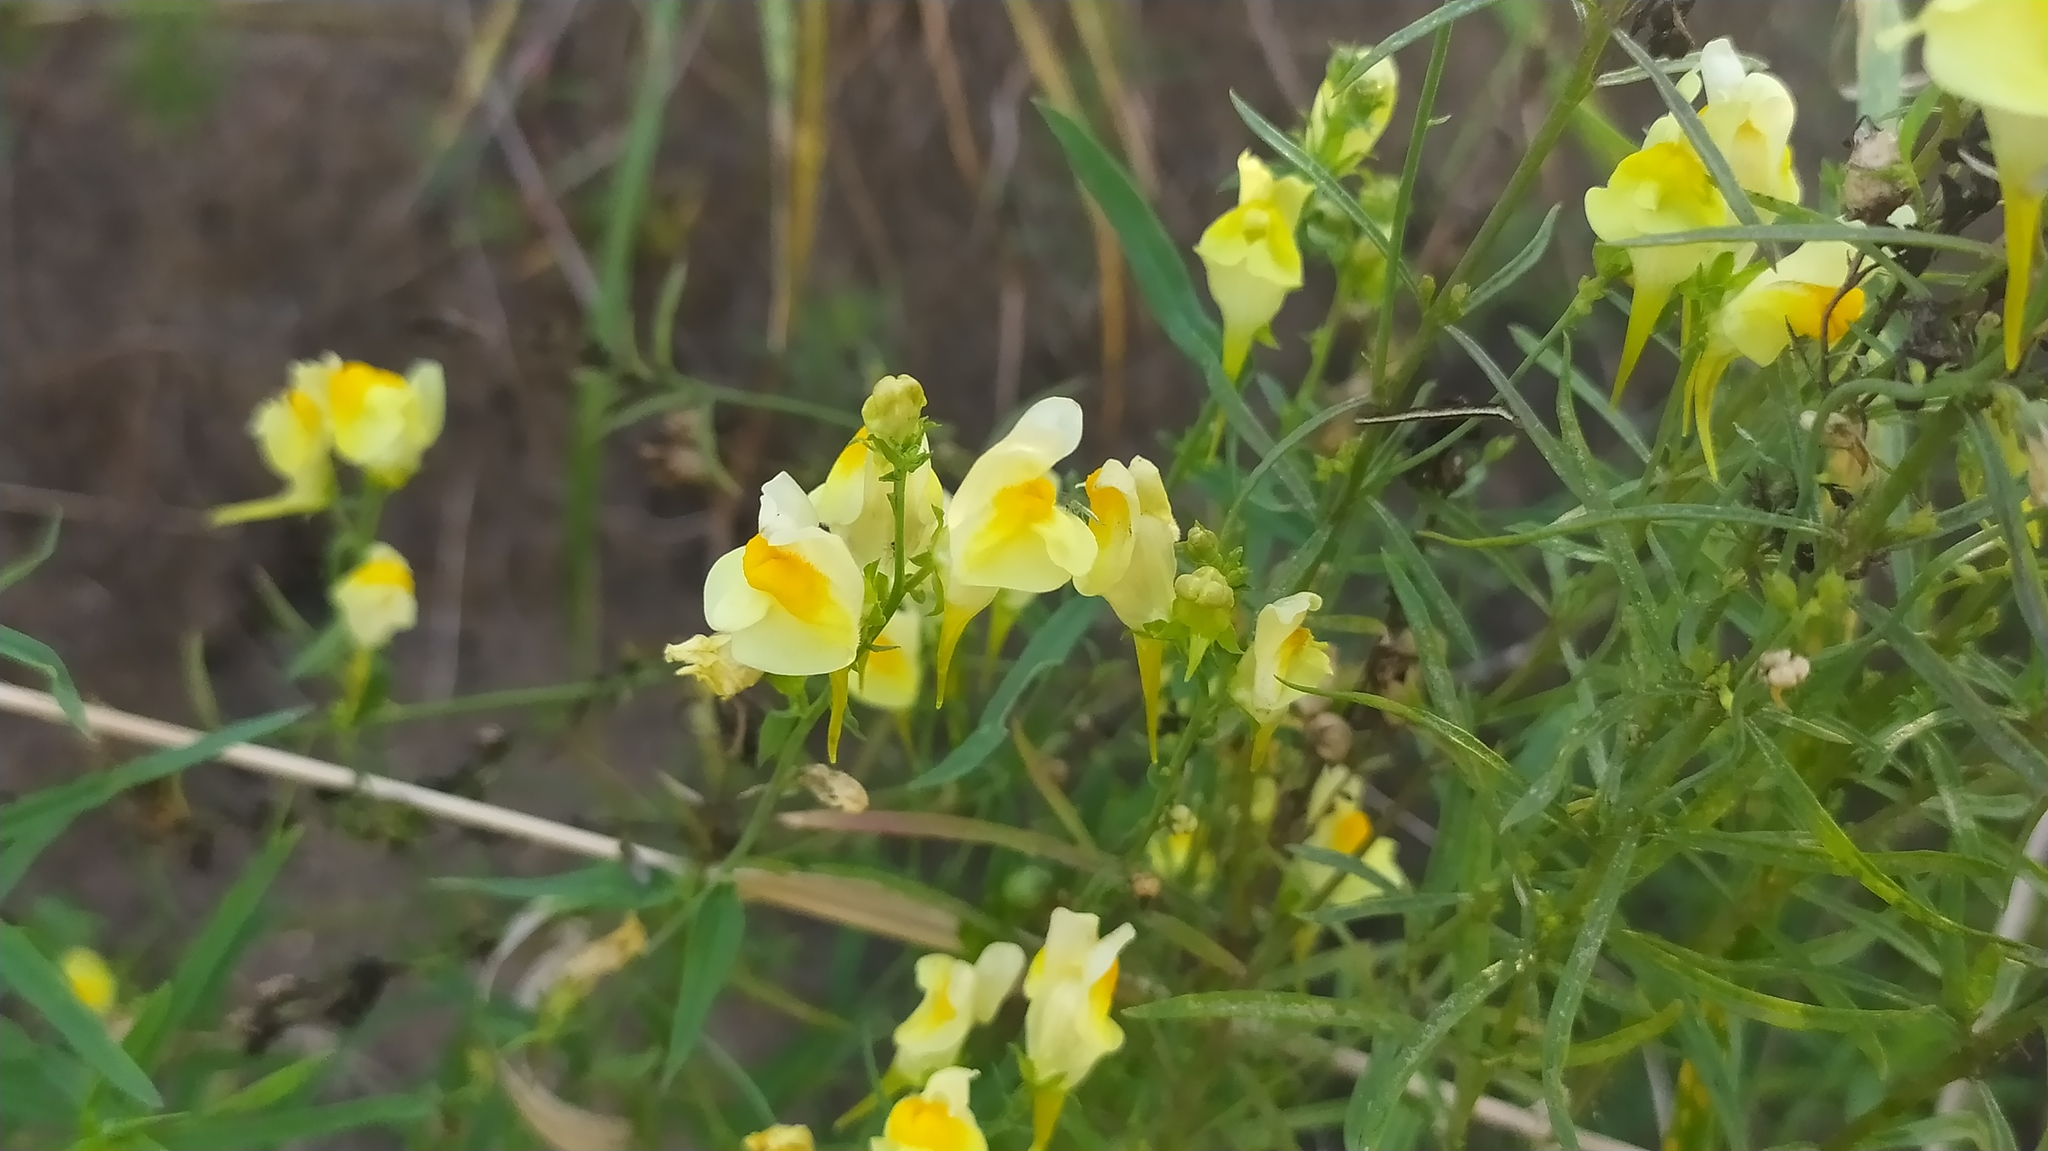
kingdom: Plantae
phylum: Tracheophyta
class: Magnoliopsida
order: Lamiales
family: Plantaginaceae
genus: Linaria
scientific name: Linaria vulgaris
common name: Butter and eggs
